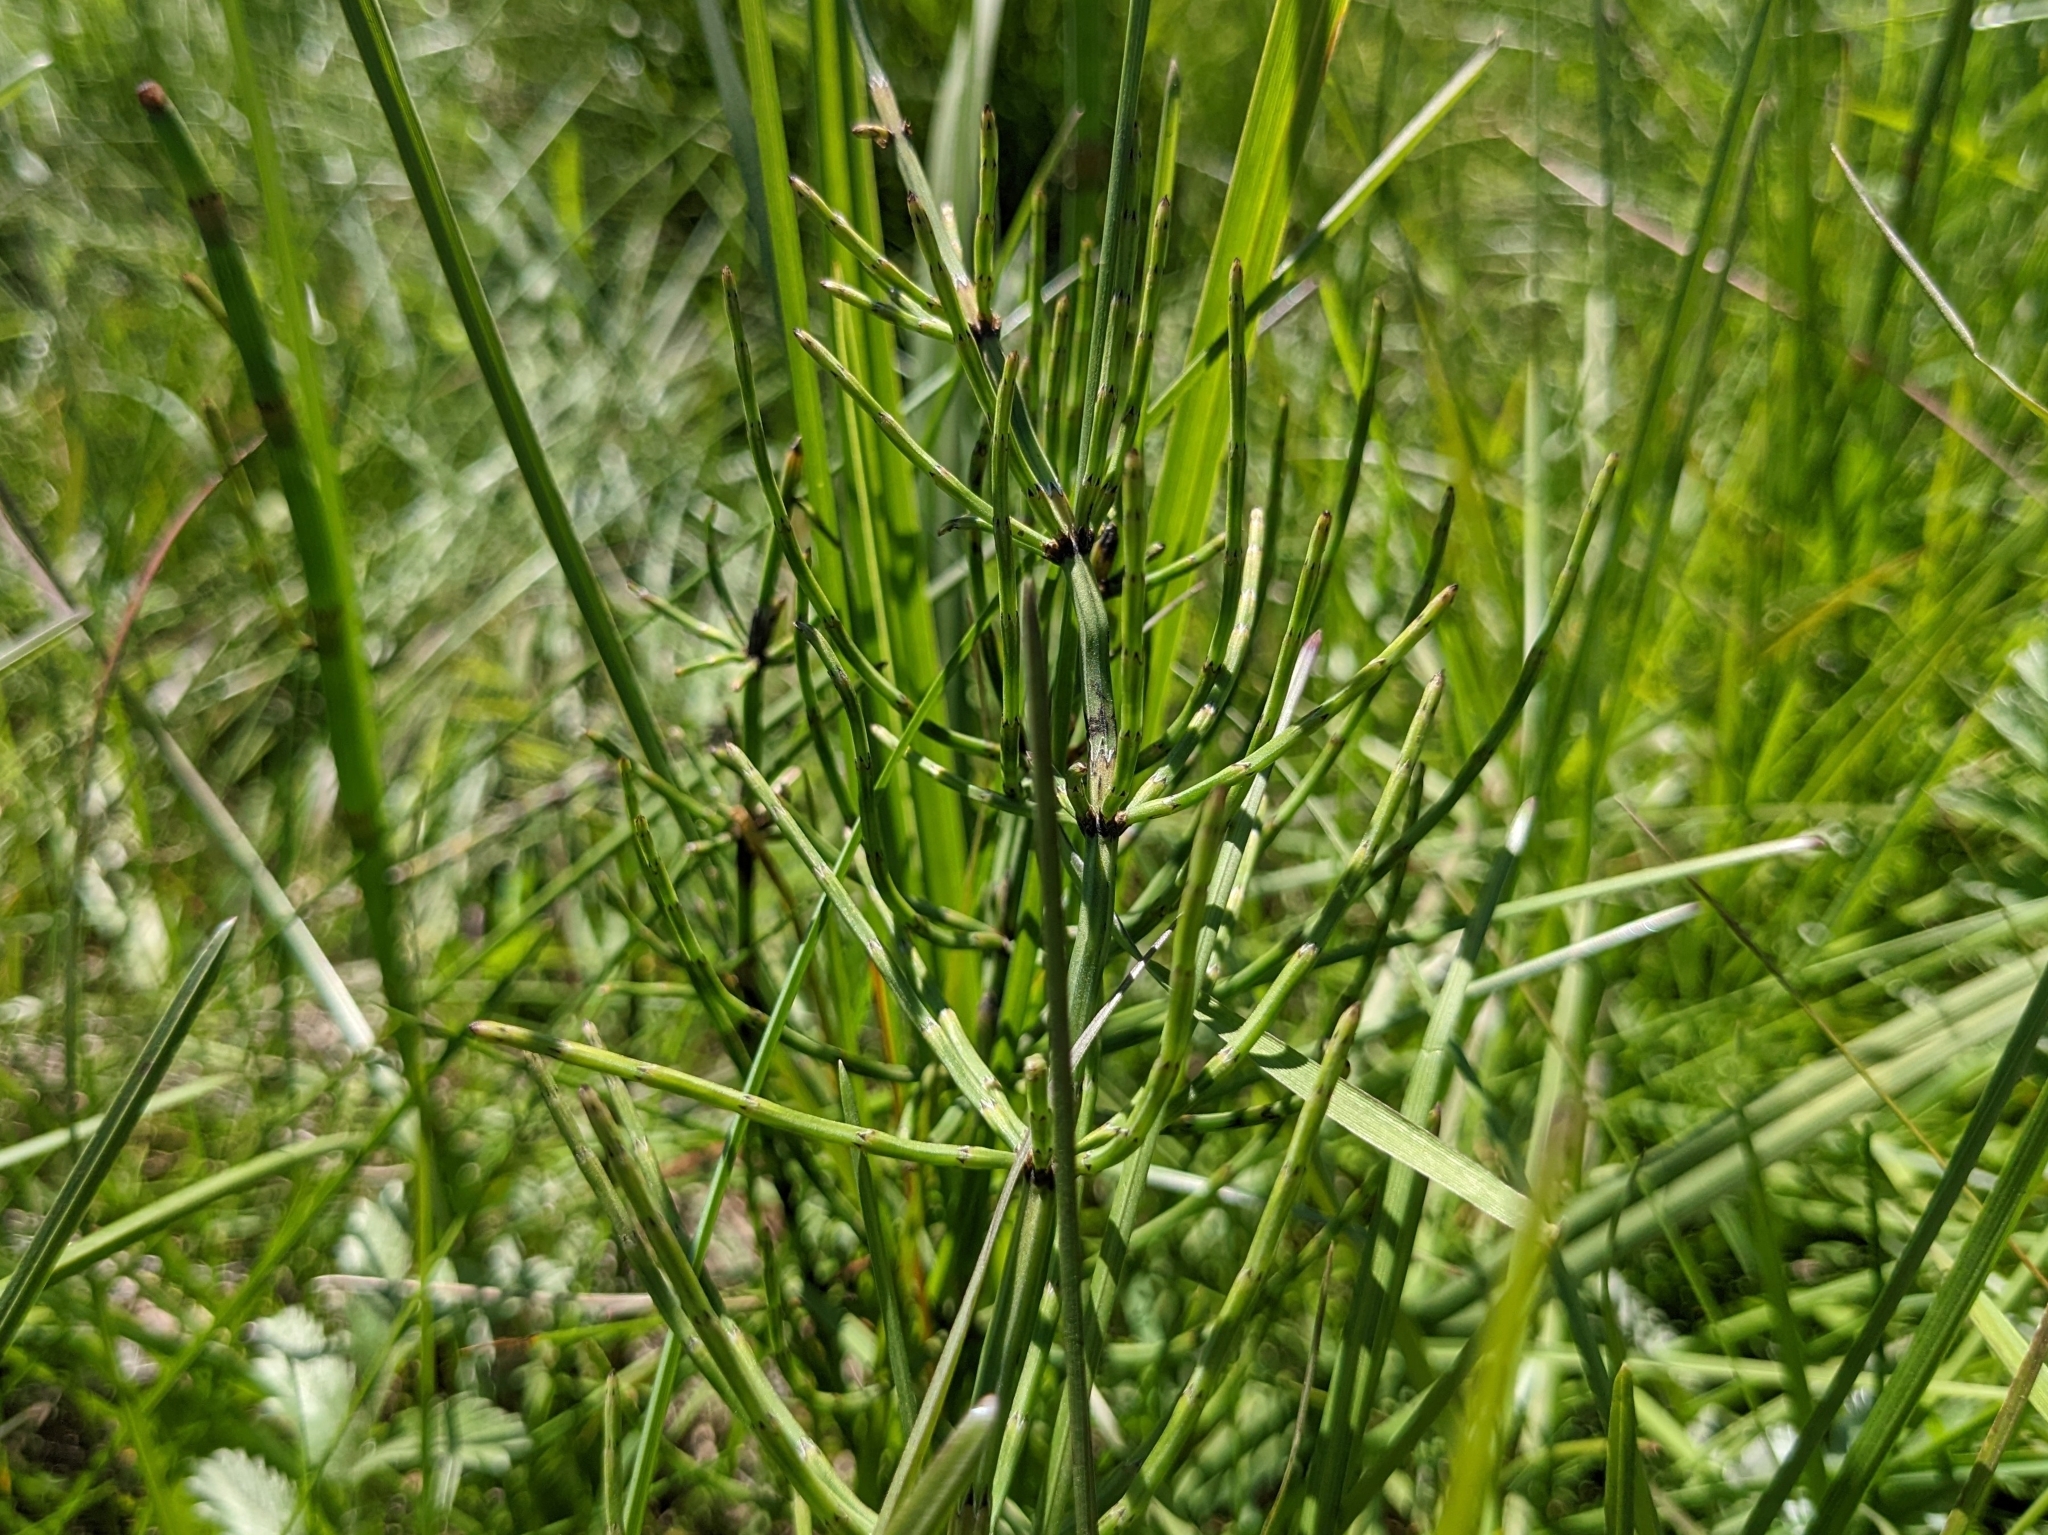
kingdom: Plantae
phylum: Tracheophyta
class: Polypodiopsida
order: Equisetales
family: Equisetaceae
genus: Equisetum
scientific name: Equisetum palustre
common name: Marsh horsetail
